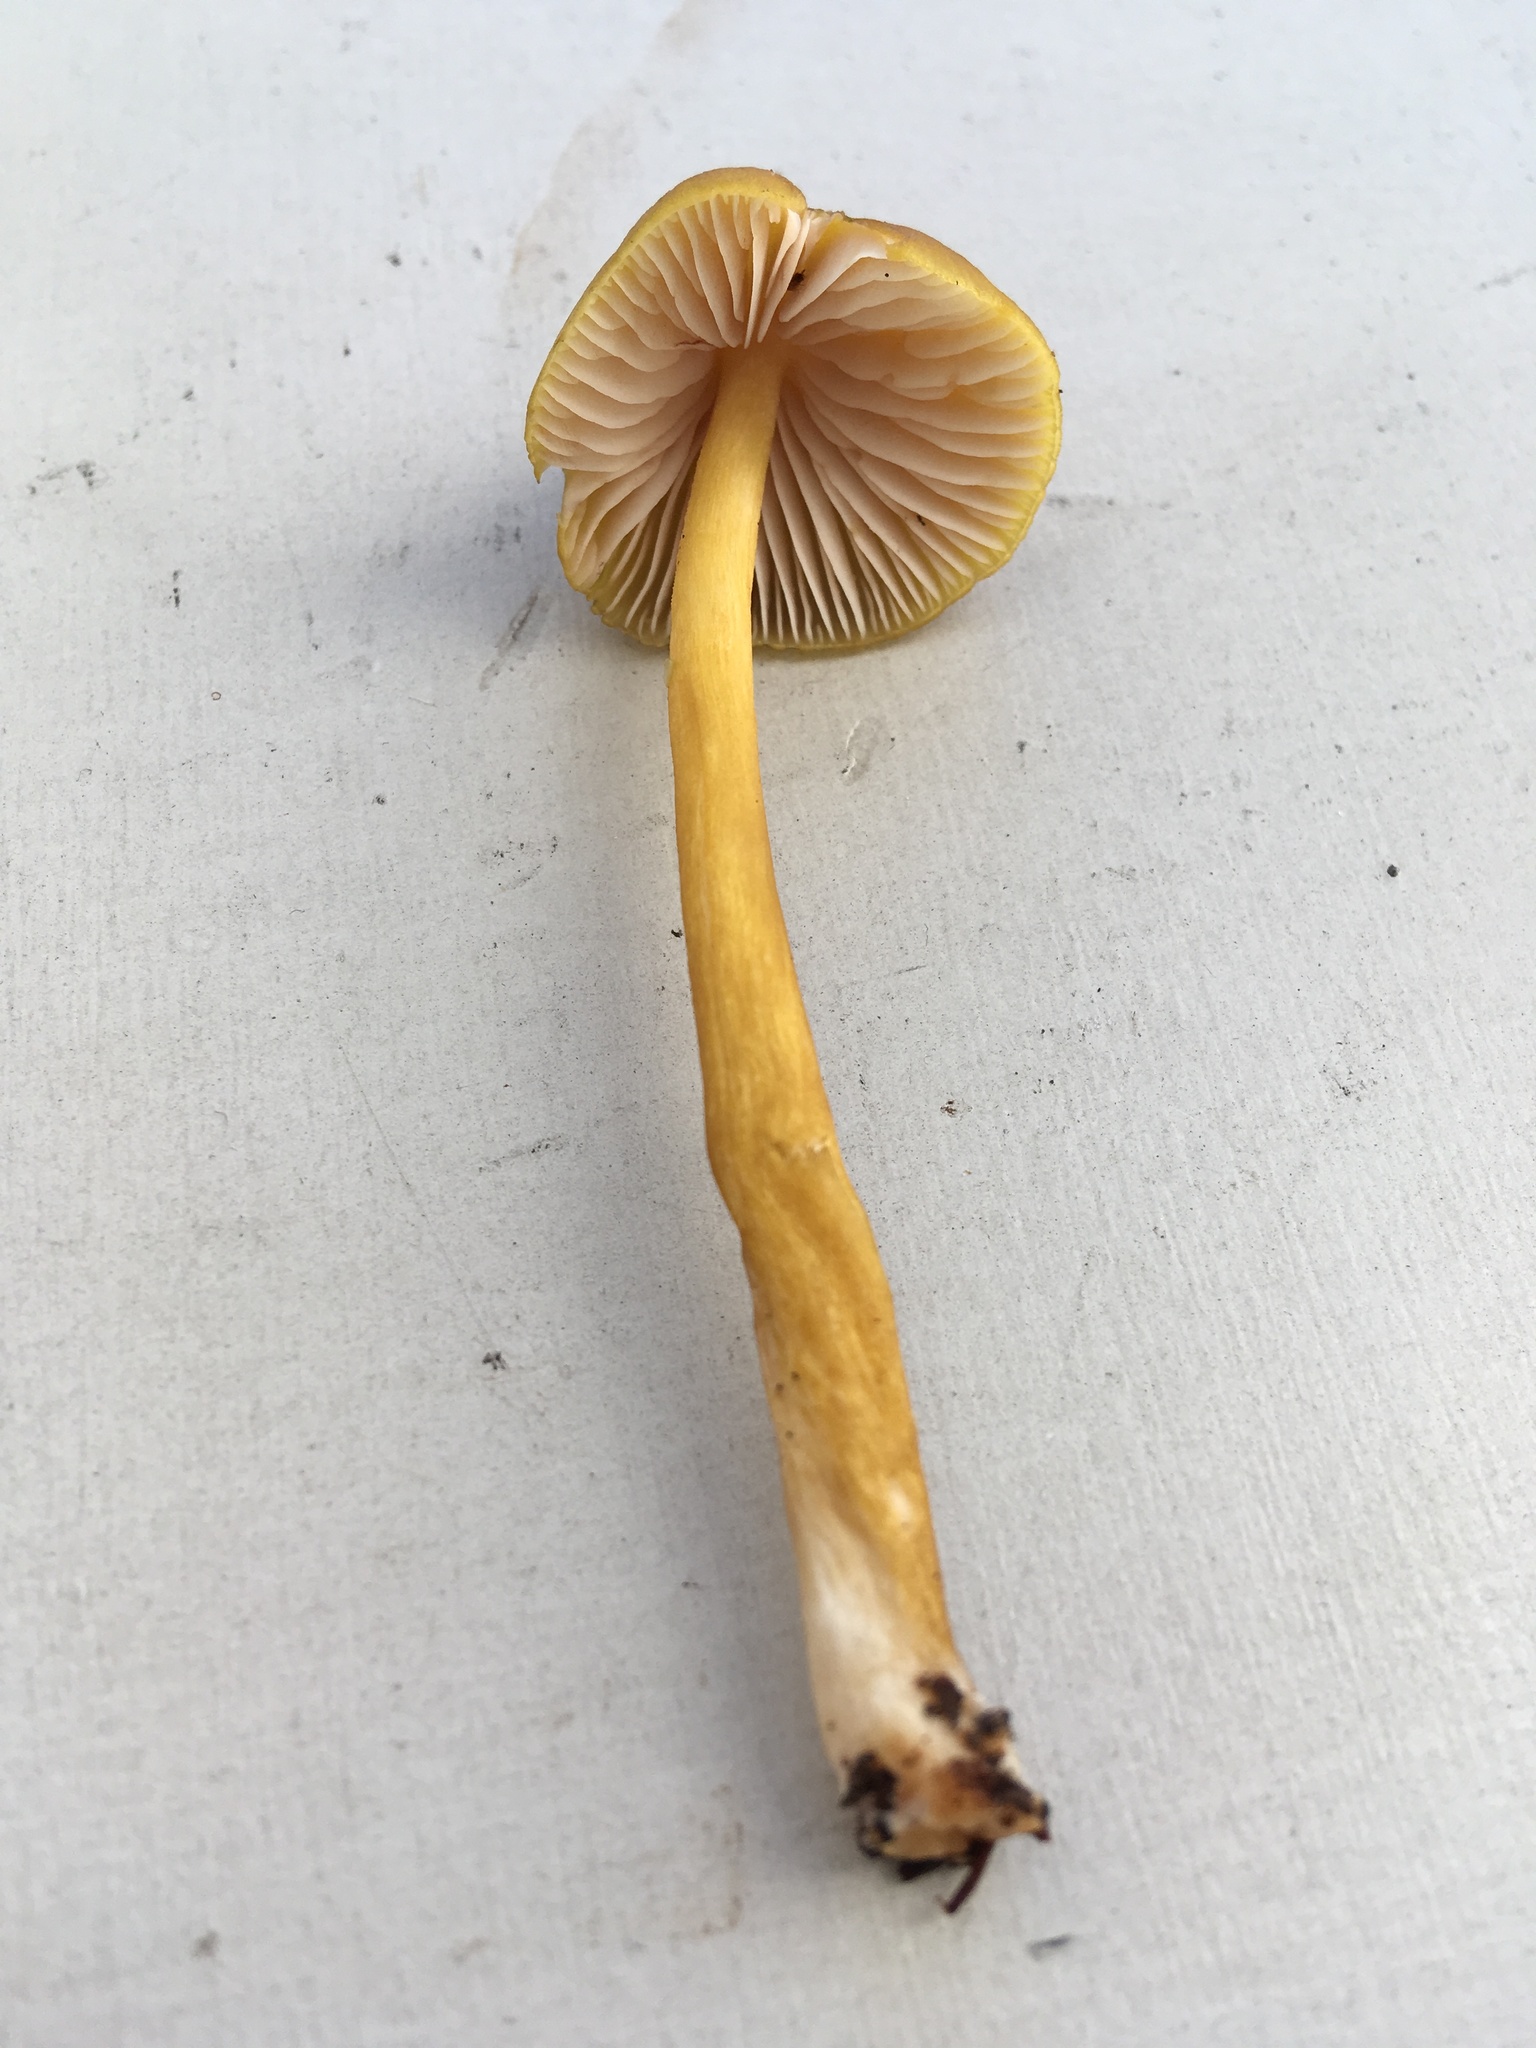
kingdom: Fungi
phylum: Basidiomycota
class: Agaricomycetes
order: Agaricales
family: Entolomataceae
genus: Entoloma
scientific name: Entoloma luteum
